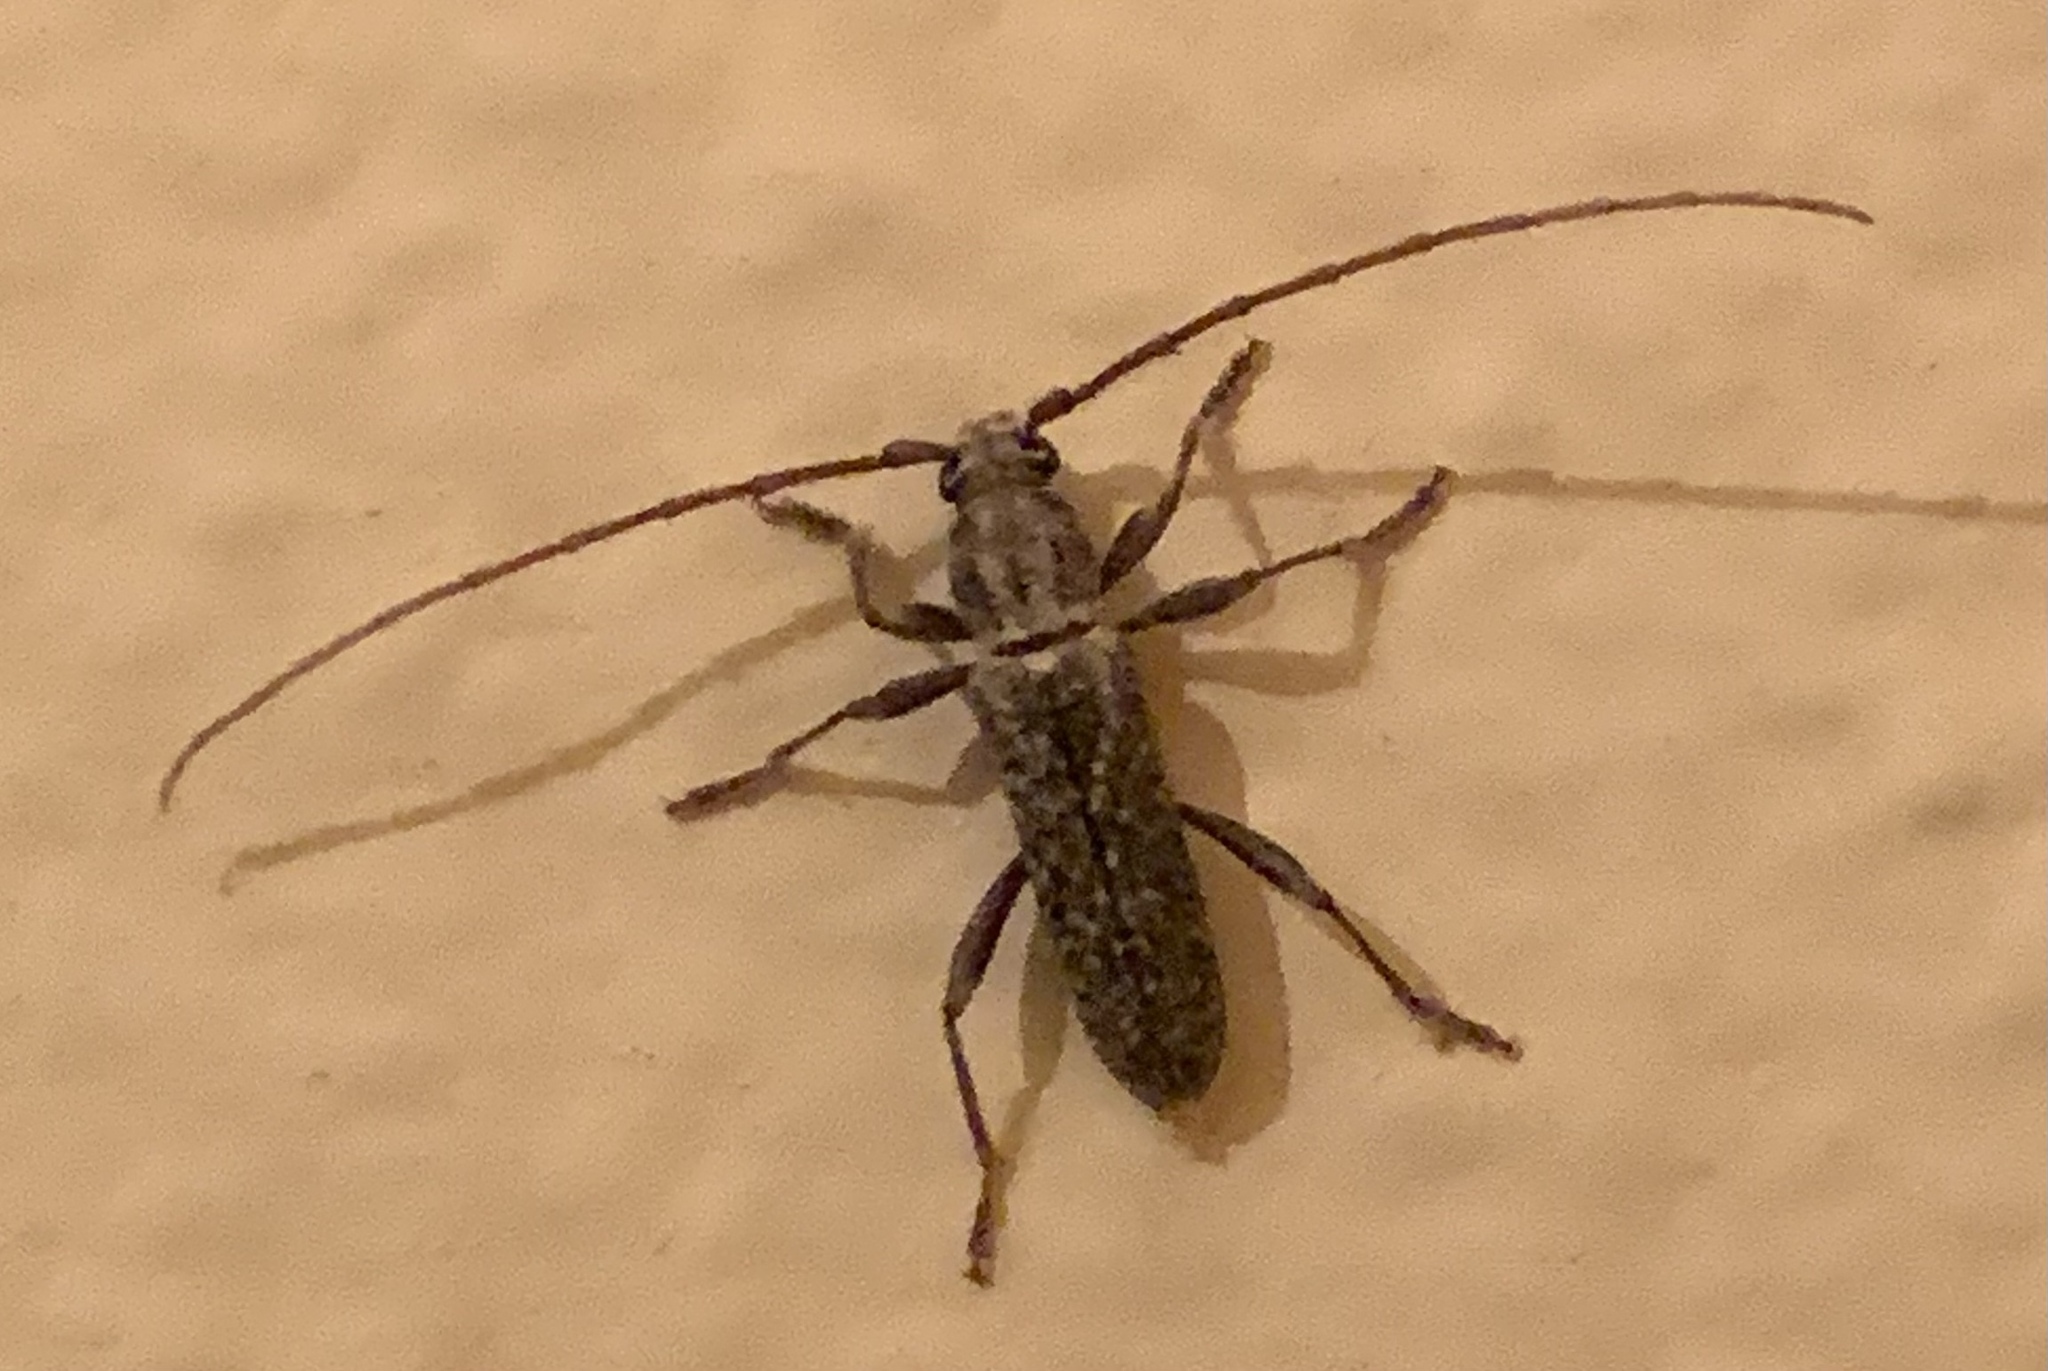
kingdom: Animalia
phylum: Arthropoda
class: Insecta
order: Coleoptera
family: Cerambycidae
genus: Anelaphus
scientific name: Anelaphus pumilus
